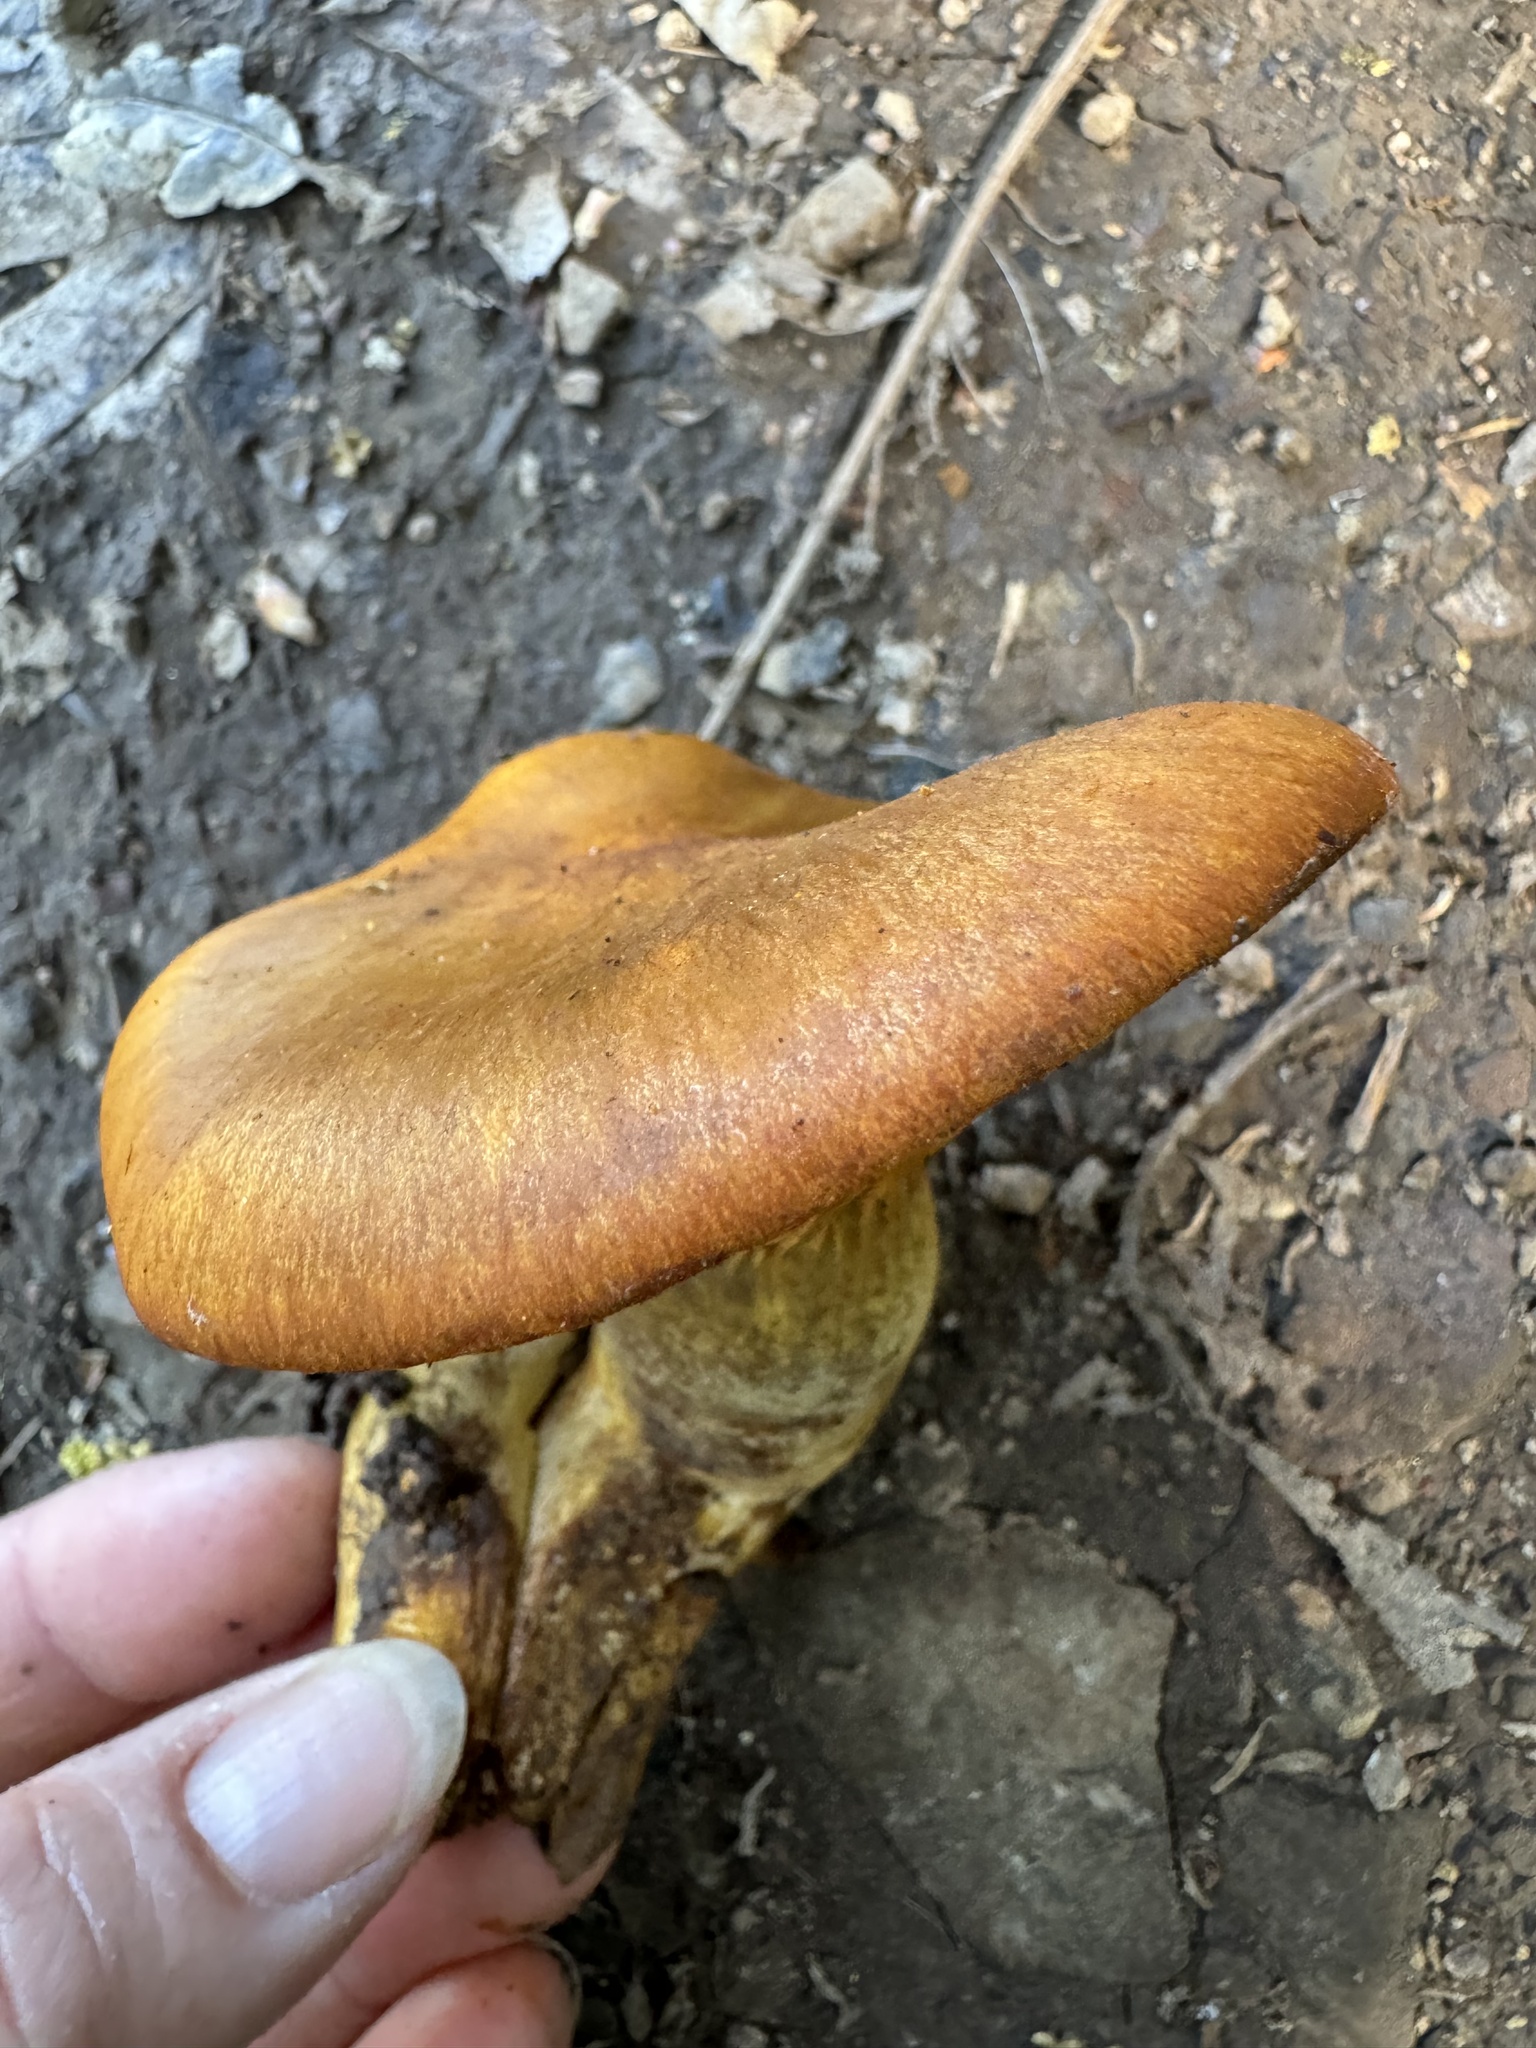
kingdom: Fungi
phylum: Basidiomycota
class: Agaricomycetes
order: Agaricales
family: Omphalotaceae
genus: Omphalotus
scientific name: Omphalotus olivascens
